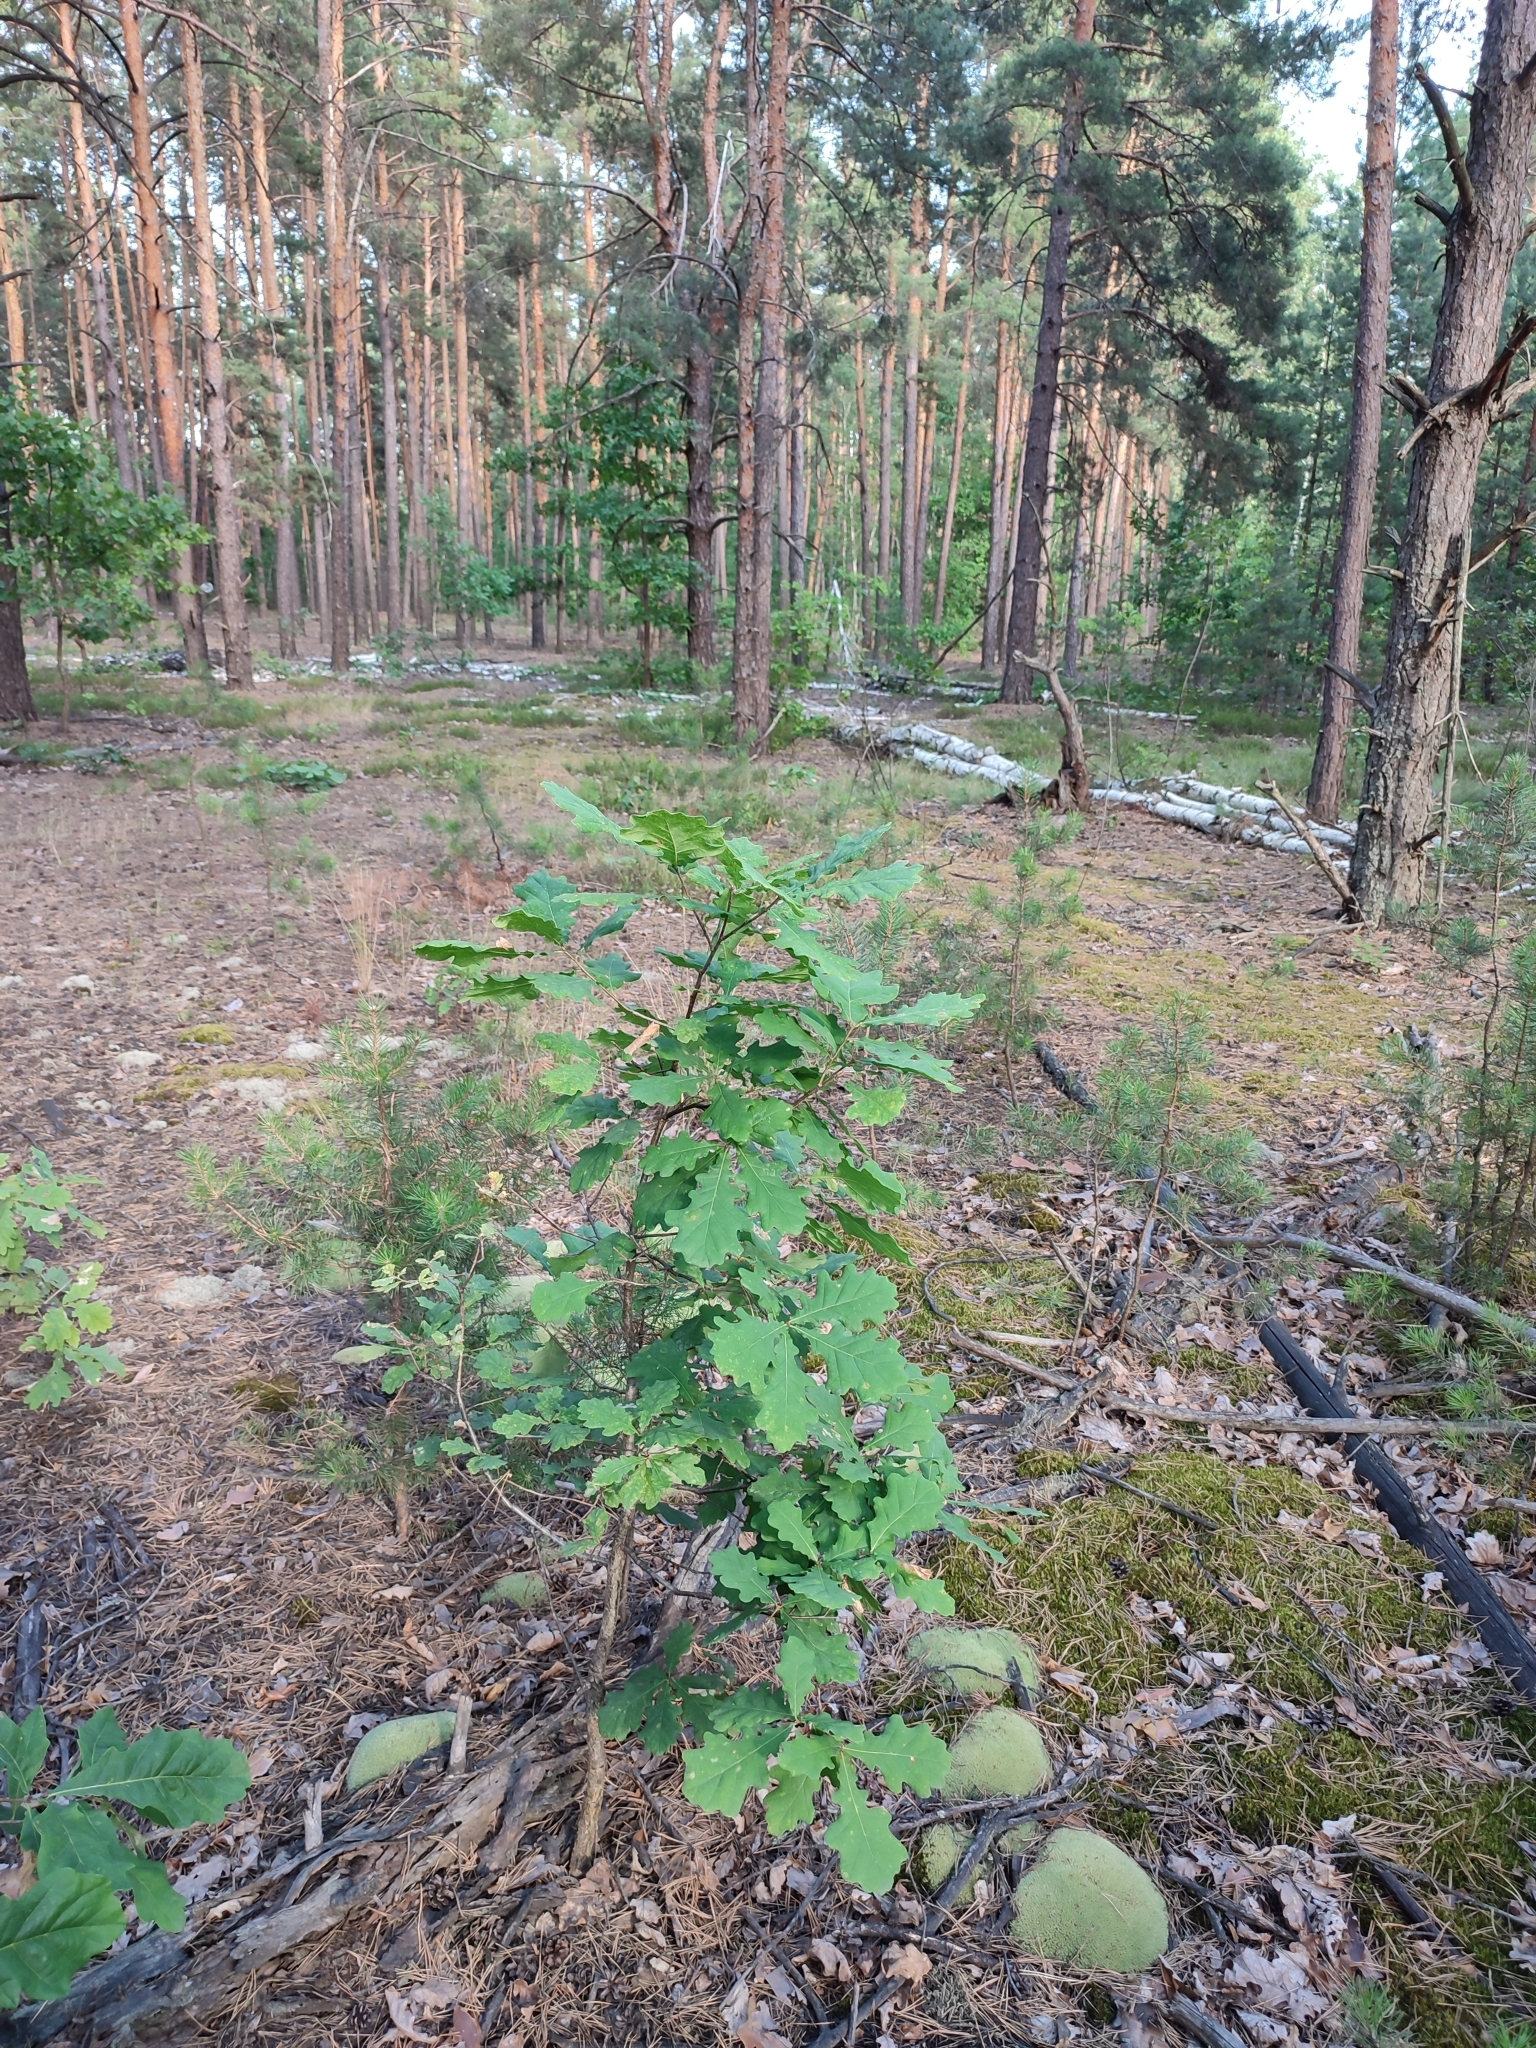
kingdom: Plantae
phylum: Tracheophyta
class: Magnoliopsida
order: Fagales
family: Fagaceae
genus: Quercus
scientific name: Quercus robur
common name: Pedunculate oak
